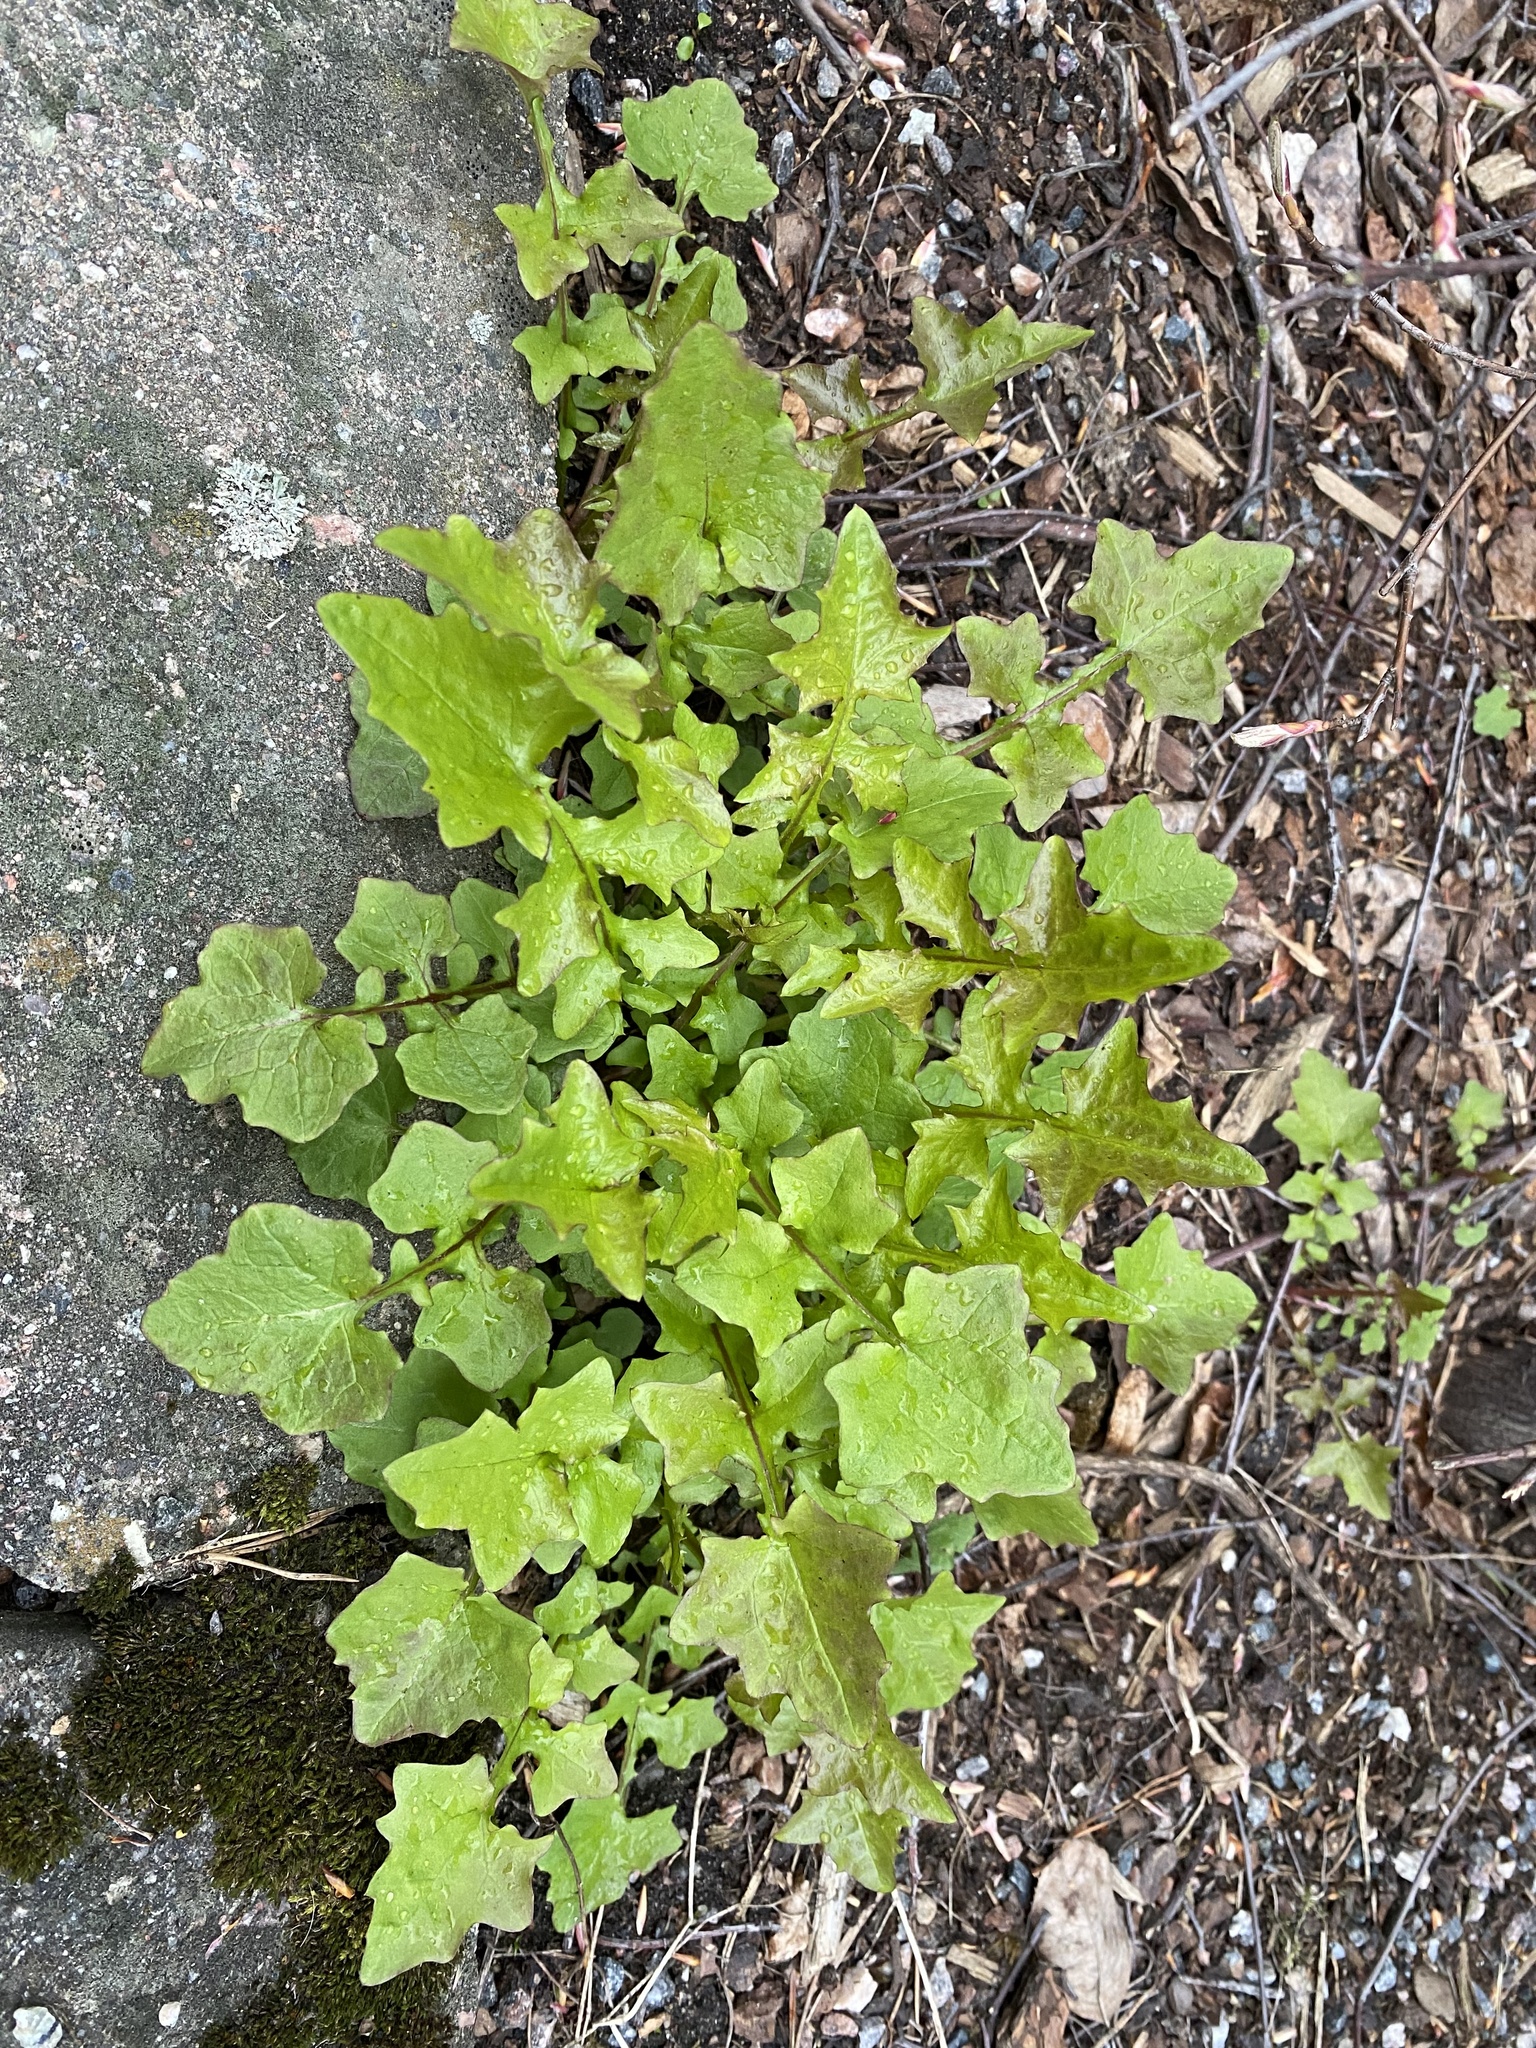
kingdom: Plantae
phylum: Tracheophyta
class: Magnoliopsida
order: Asterales
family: Asteraceae
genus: Mycelis
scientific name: Mycelis muralis
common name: Wall lettuce
